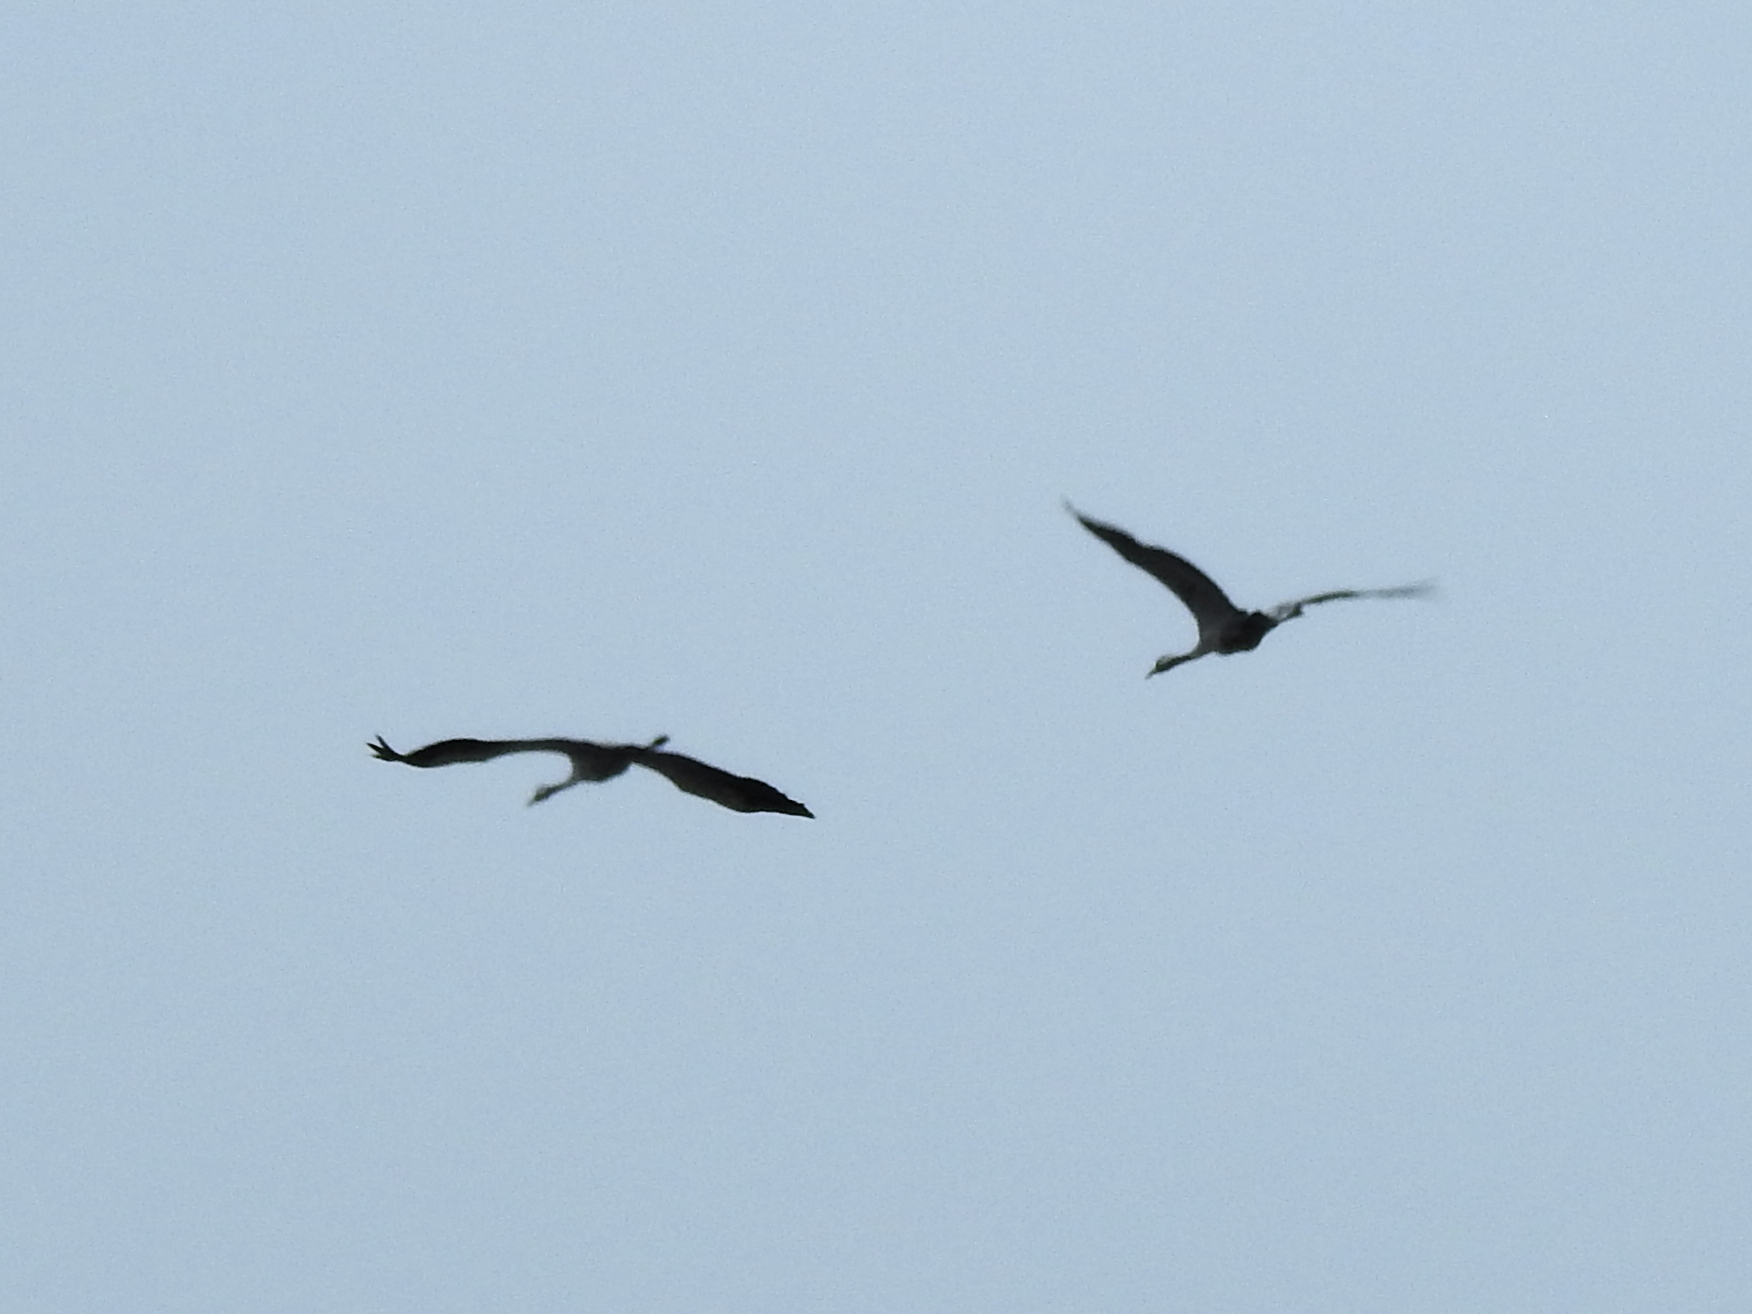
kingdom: Animalia
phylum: Chordata
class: Aves
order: Gruiformes
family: Gruidae
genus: Grus
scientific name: Grus grus
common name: Common crane
